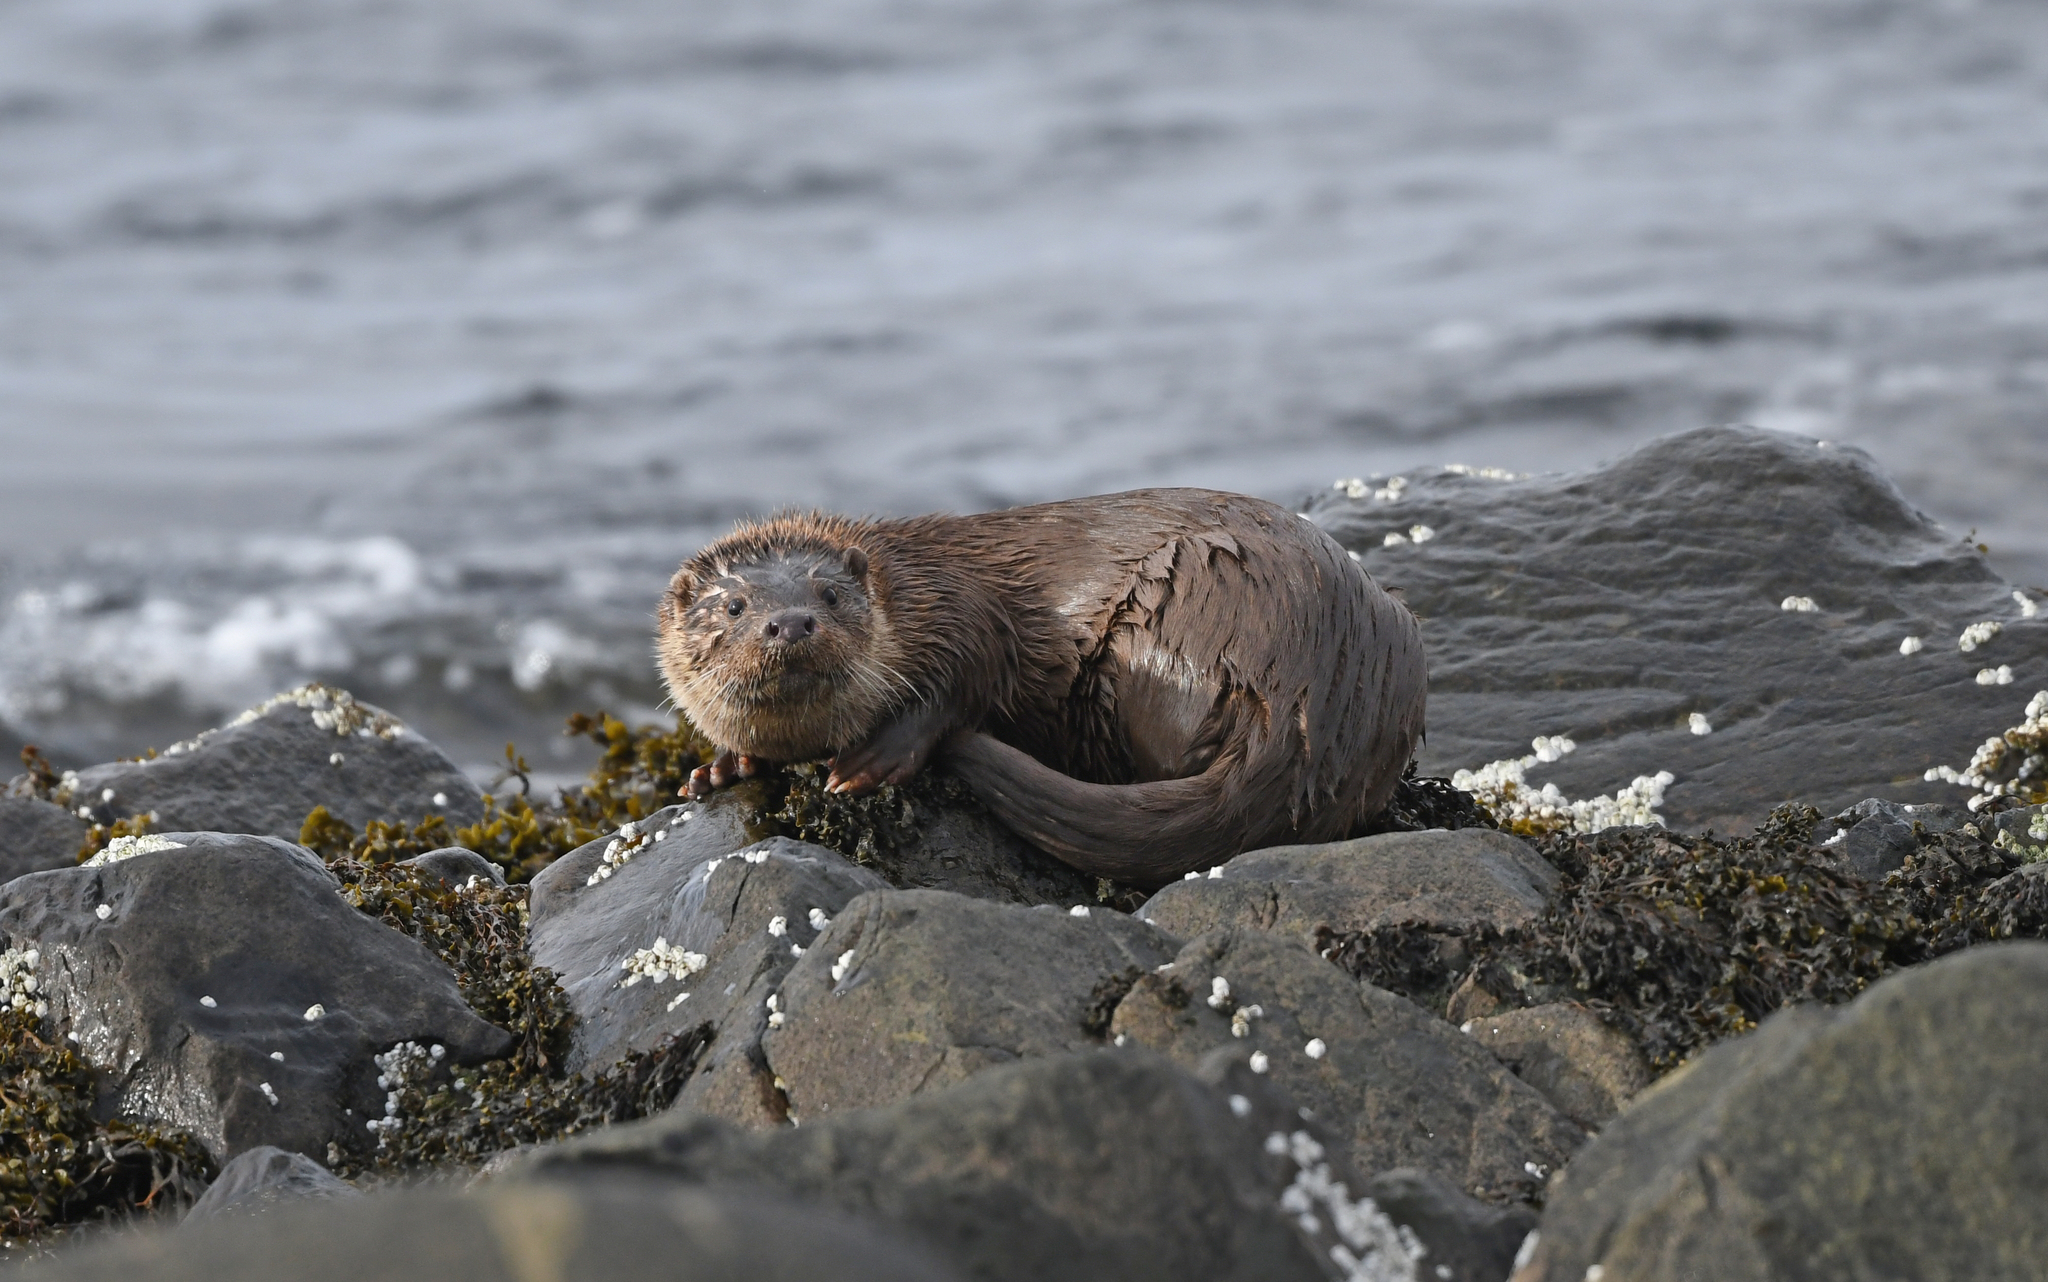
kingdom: Animalia
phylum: Chordata
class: Mammalia
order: Carnivora
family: Mustelidae
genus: Lutra
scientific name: Lutra lutra
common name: European otter
